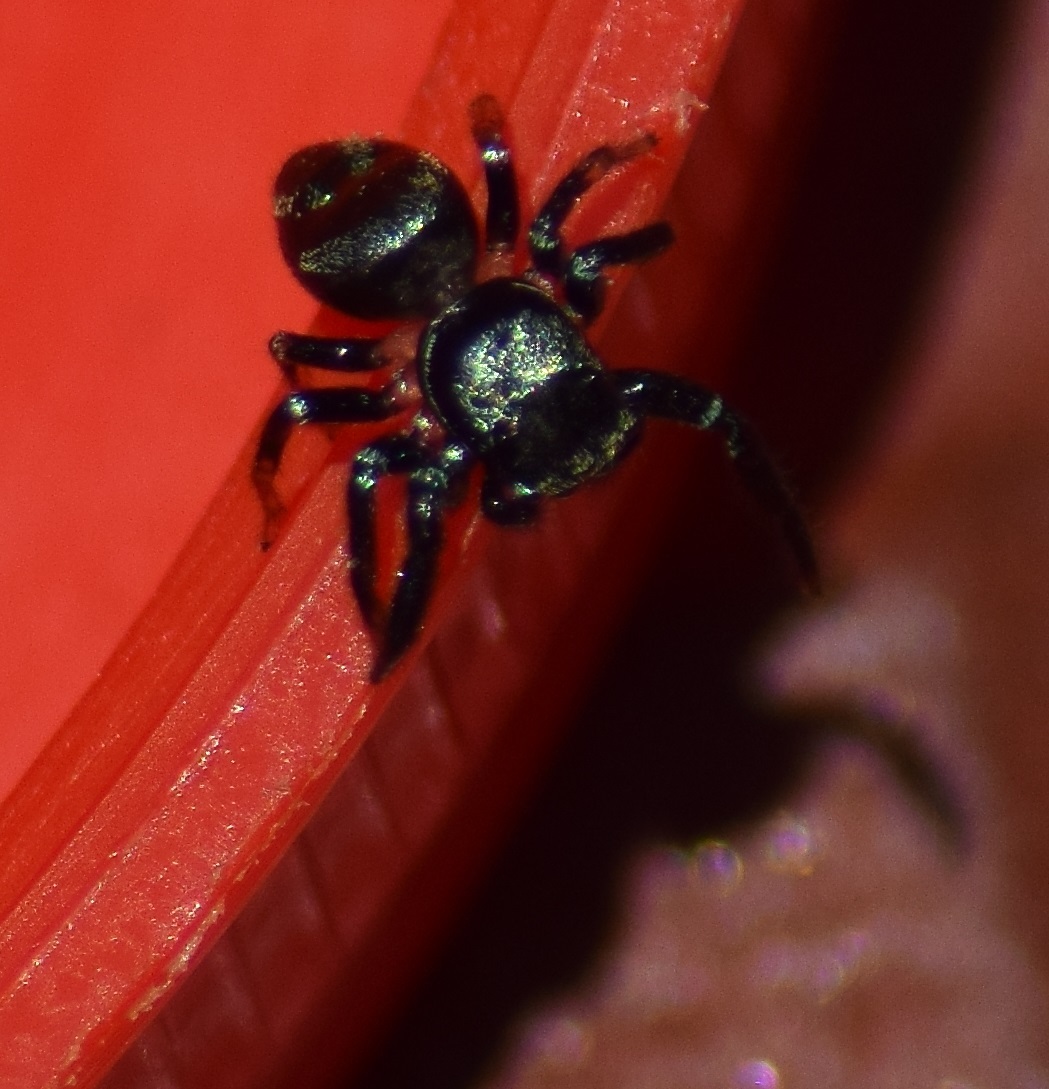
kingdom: Animalia
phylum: Arthropoda
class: Arachnida
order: Araneae
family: Salticidae
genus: Thiania
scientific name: Thiania bhamoensis
